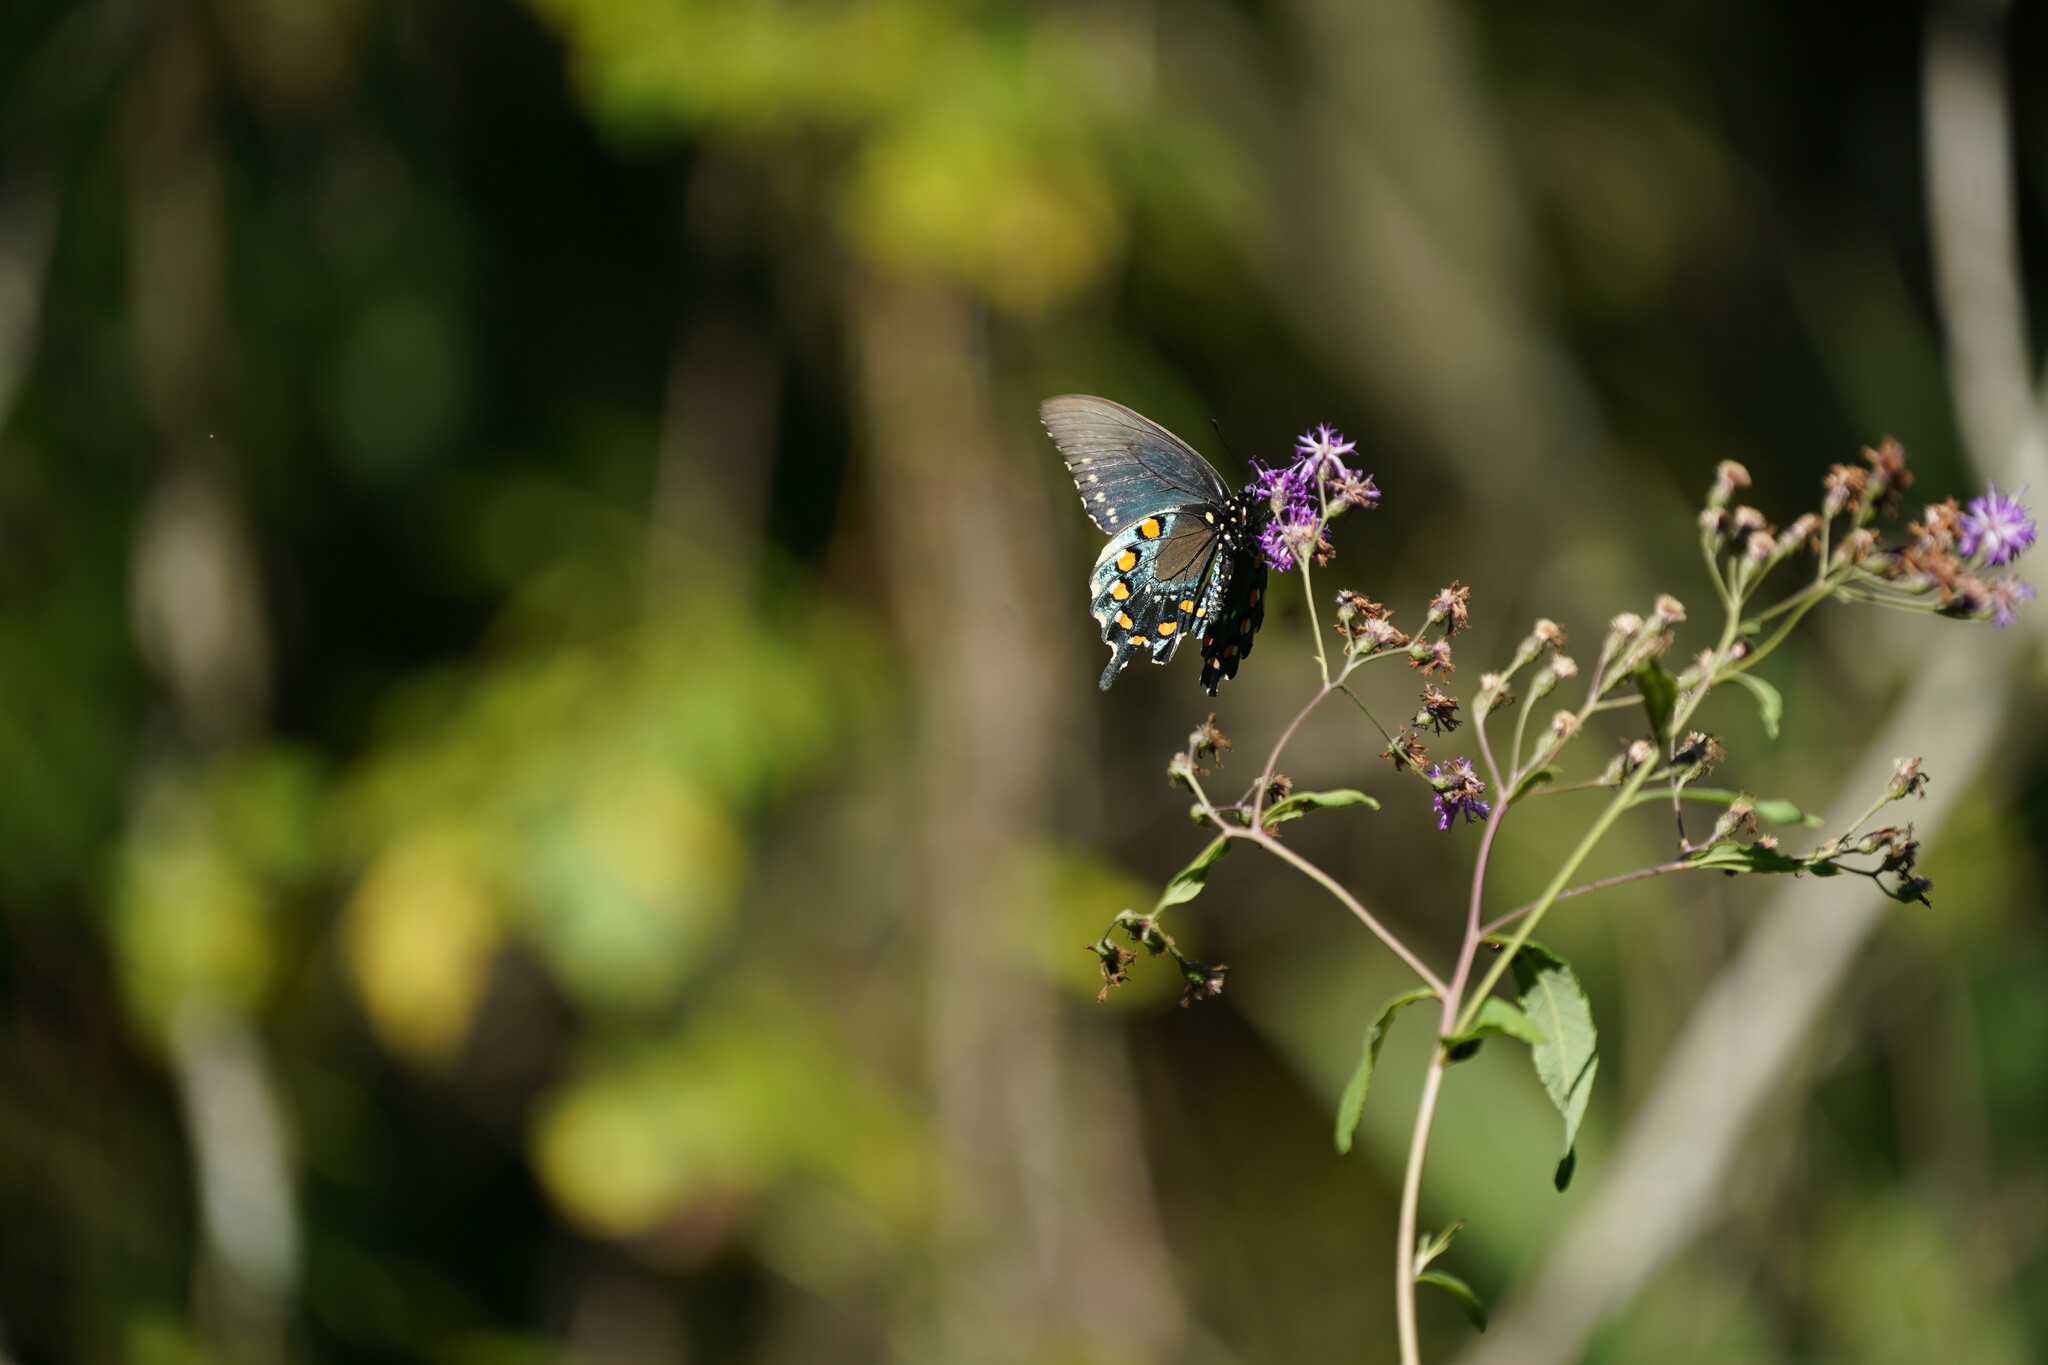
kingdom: Animalia
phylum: Arthropoda
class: Insecta
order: Lepidoptera
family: Papilionidae
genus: Battus
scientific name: Battus philenor
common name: Pipevine swallowtail
